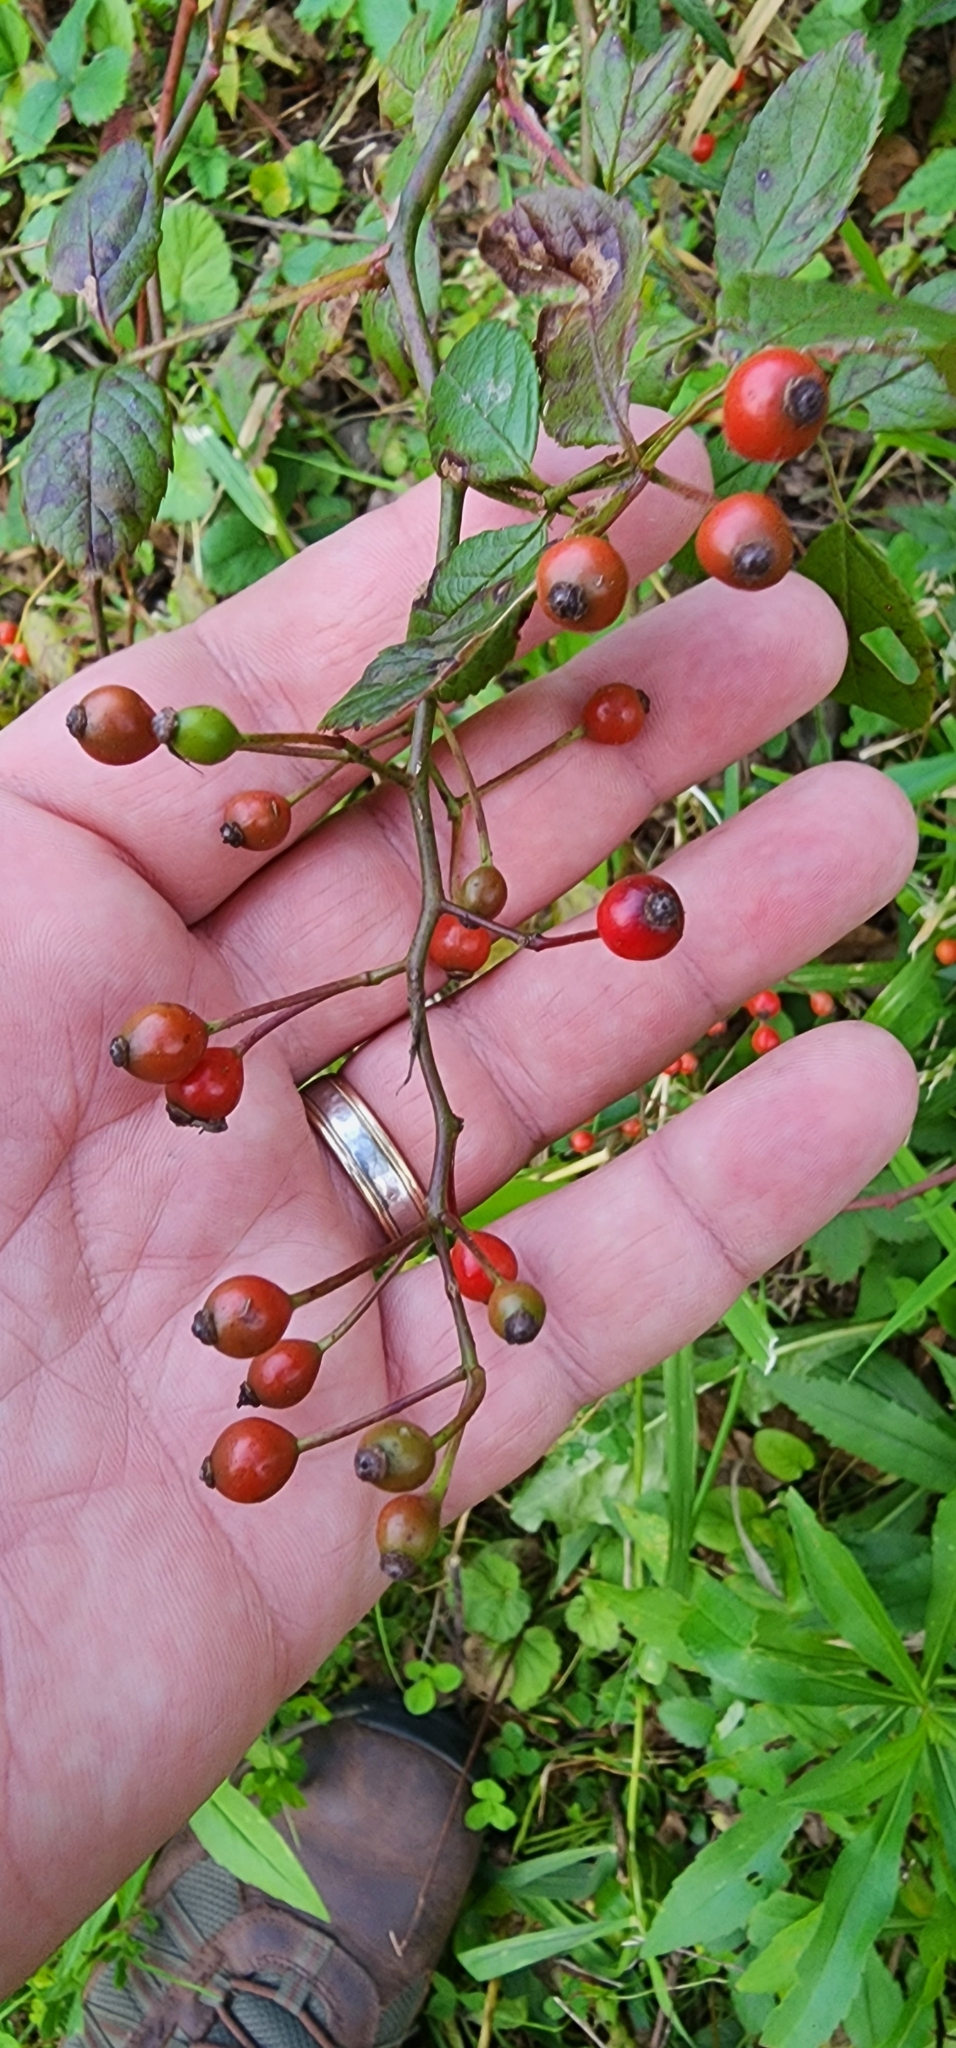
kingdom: Plantae
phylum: Tracheophyta
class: Magnoliopsida
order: Rosales
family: Rosaceae
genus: Rosa
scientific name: Rosa multiflora
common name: Multiflora rose
